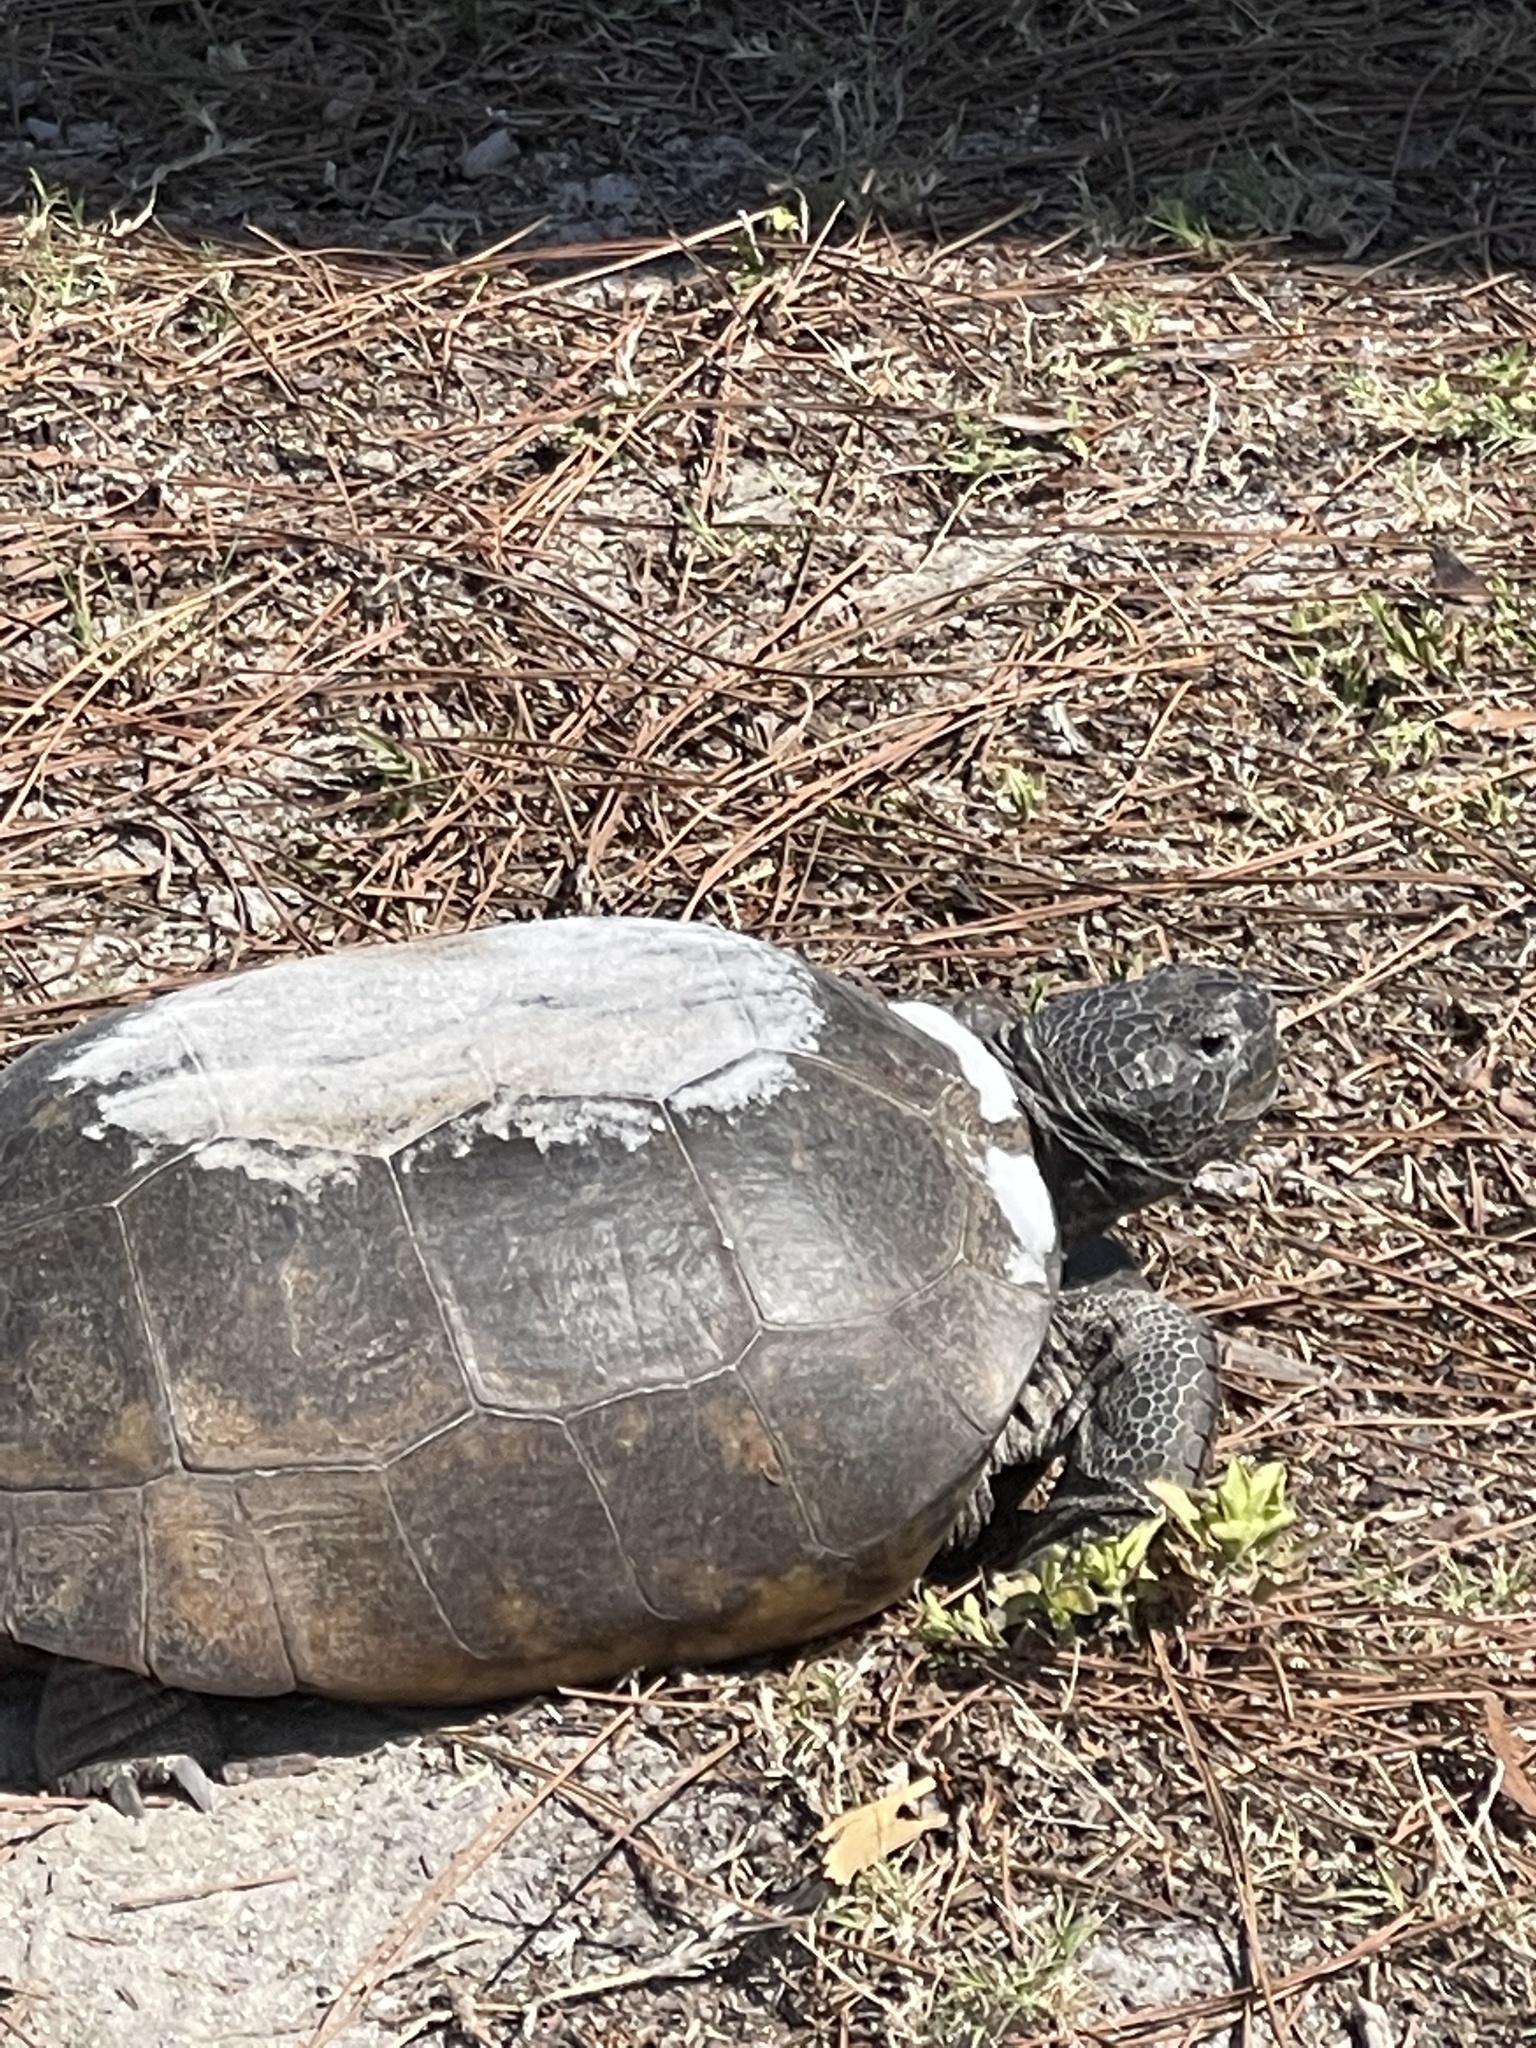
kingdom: Animalia
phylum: Chordata
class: Testudines
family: Testudinidae
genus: Gopherus
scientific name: Gopherus polyphemus
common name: Florida gopher tortoise
